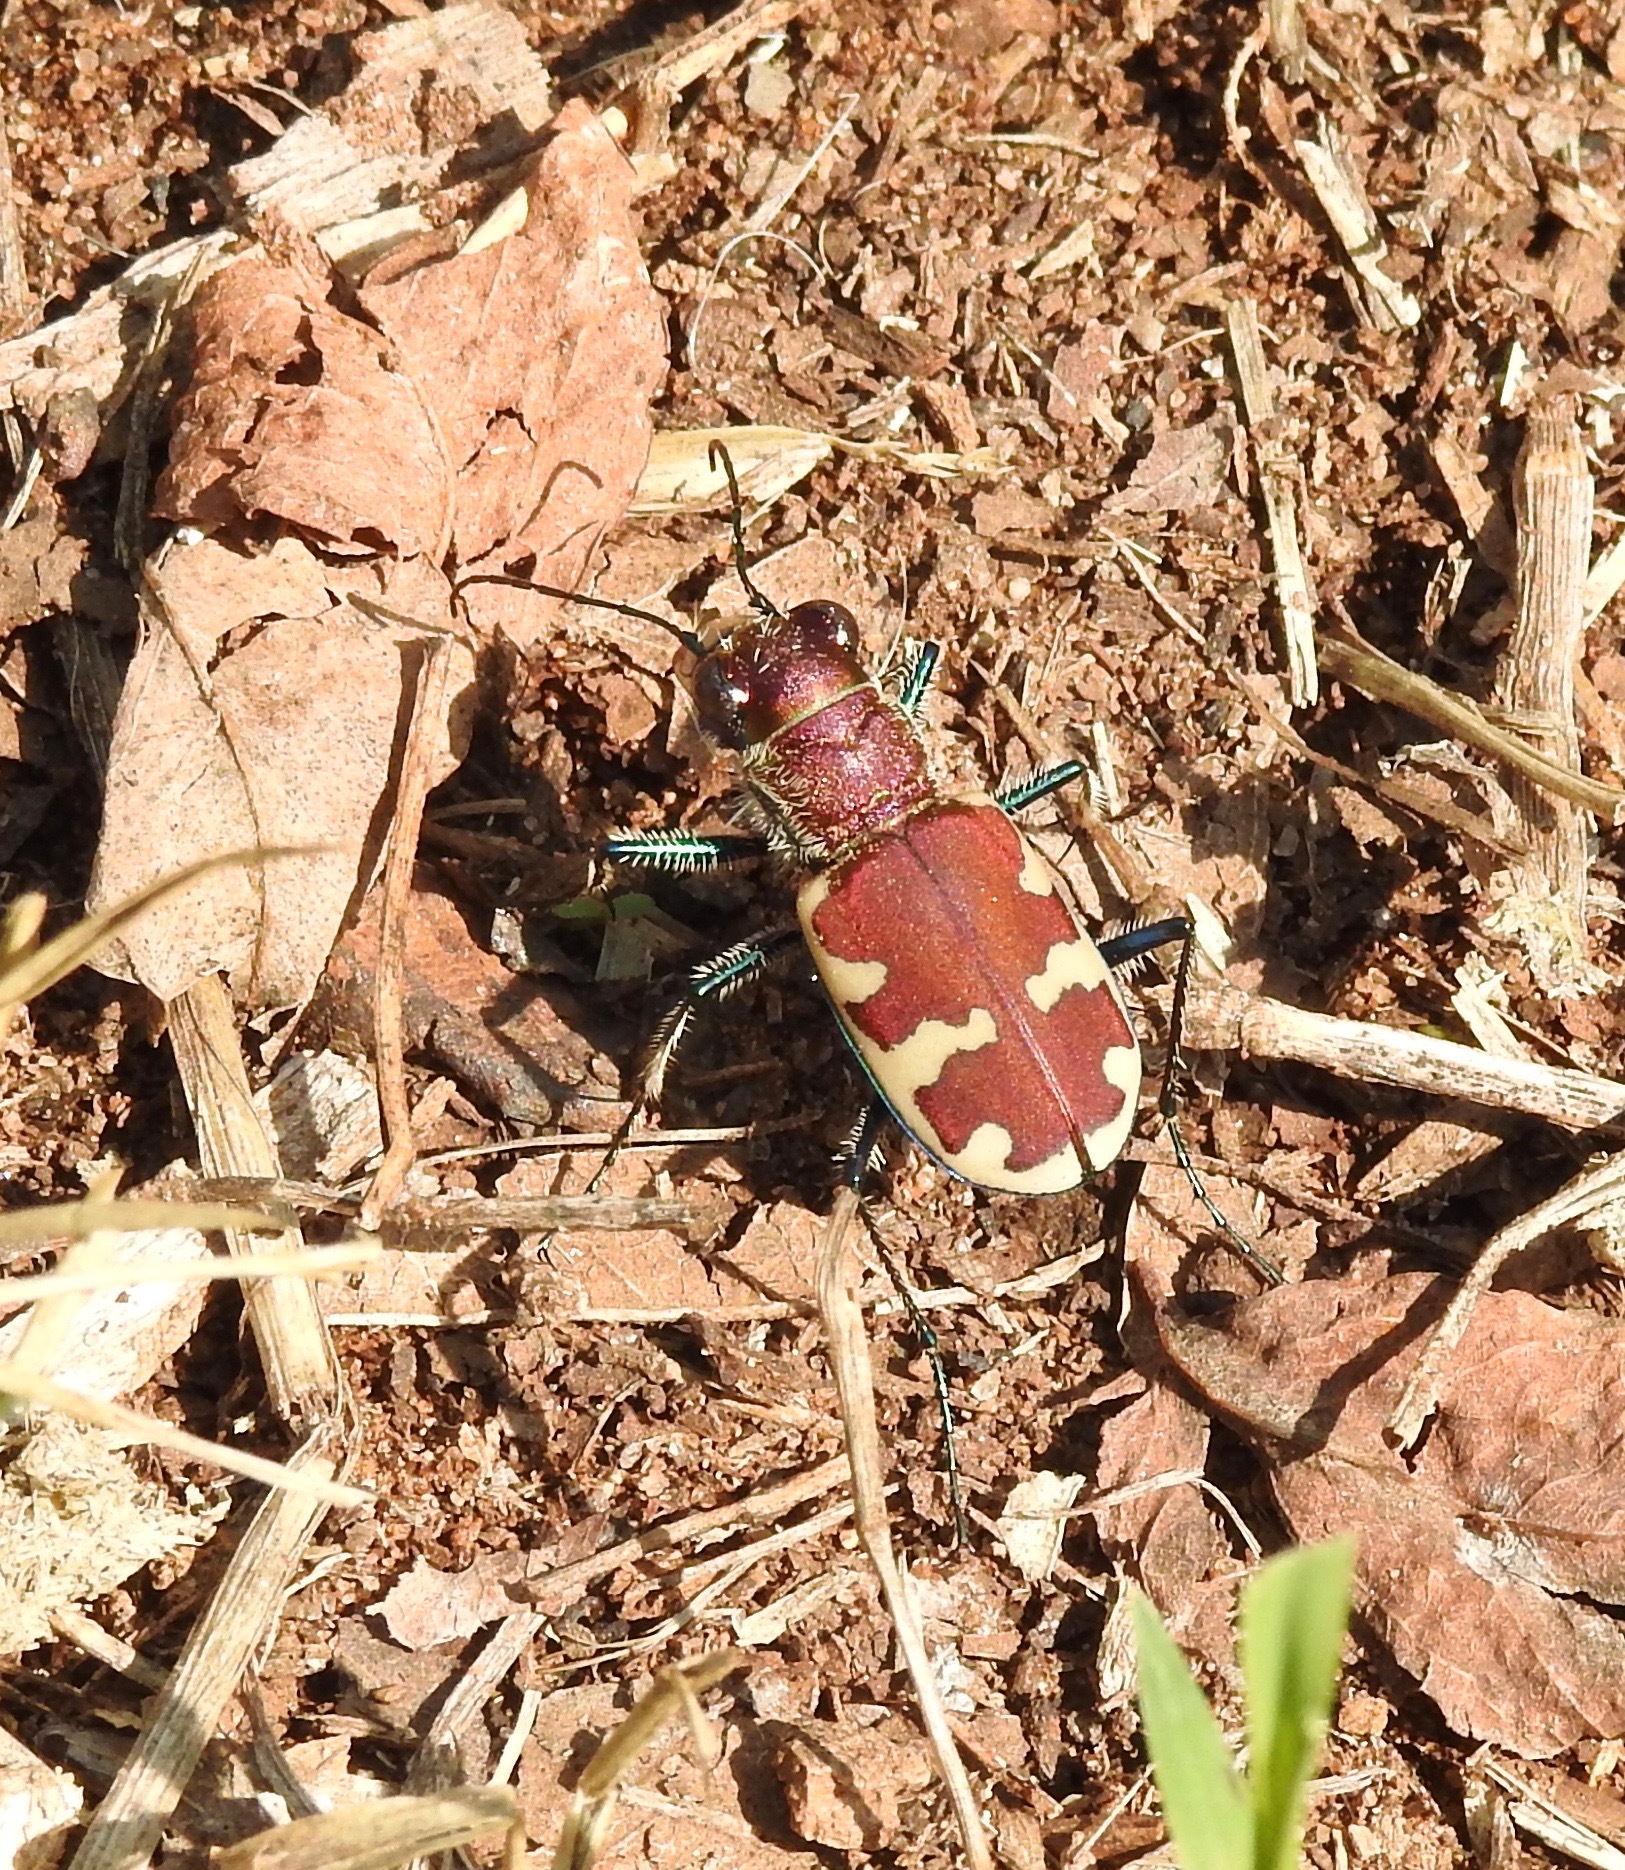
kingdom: Animalia
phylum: Arthropoda
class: Insecta
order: Coleoptera
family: Carabidae
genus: Cicindela
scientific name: Cicindela formosa
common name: Big sand tiger beetle
